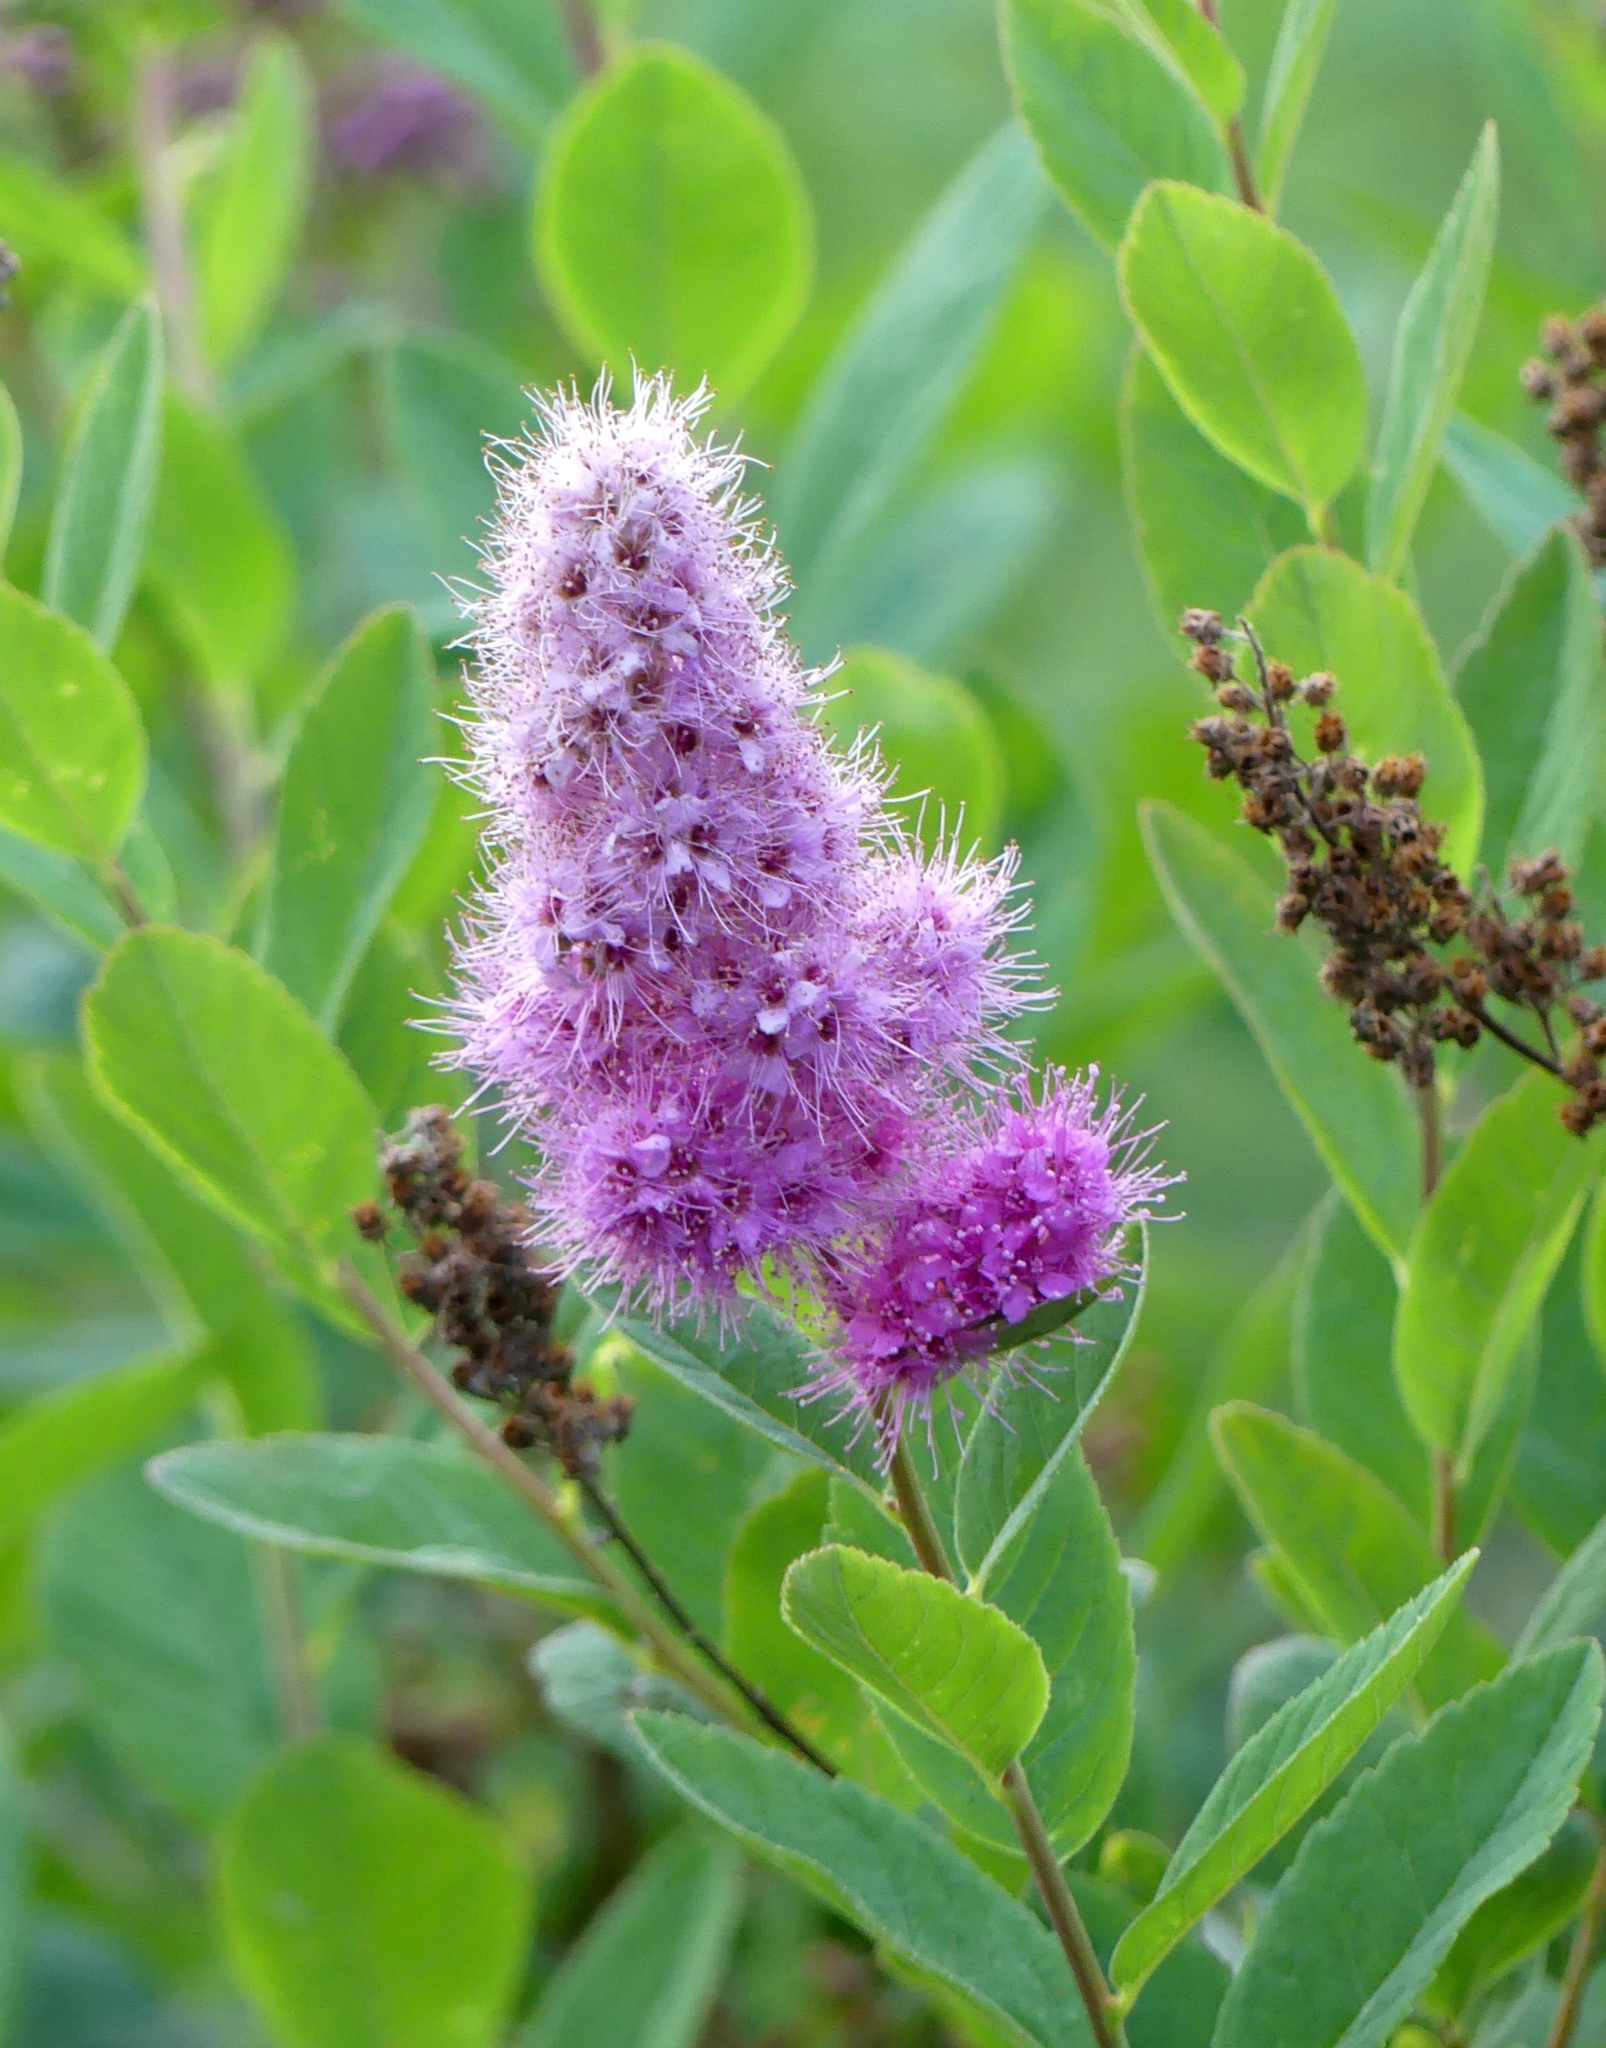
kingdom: Plantae
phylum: Tracheophyta
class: Magnoliopsida
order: Rosales
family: Rosaceae
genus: Spiraea
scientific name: Spiraea douglasii
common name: Steeplebush
